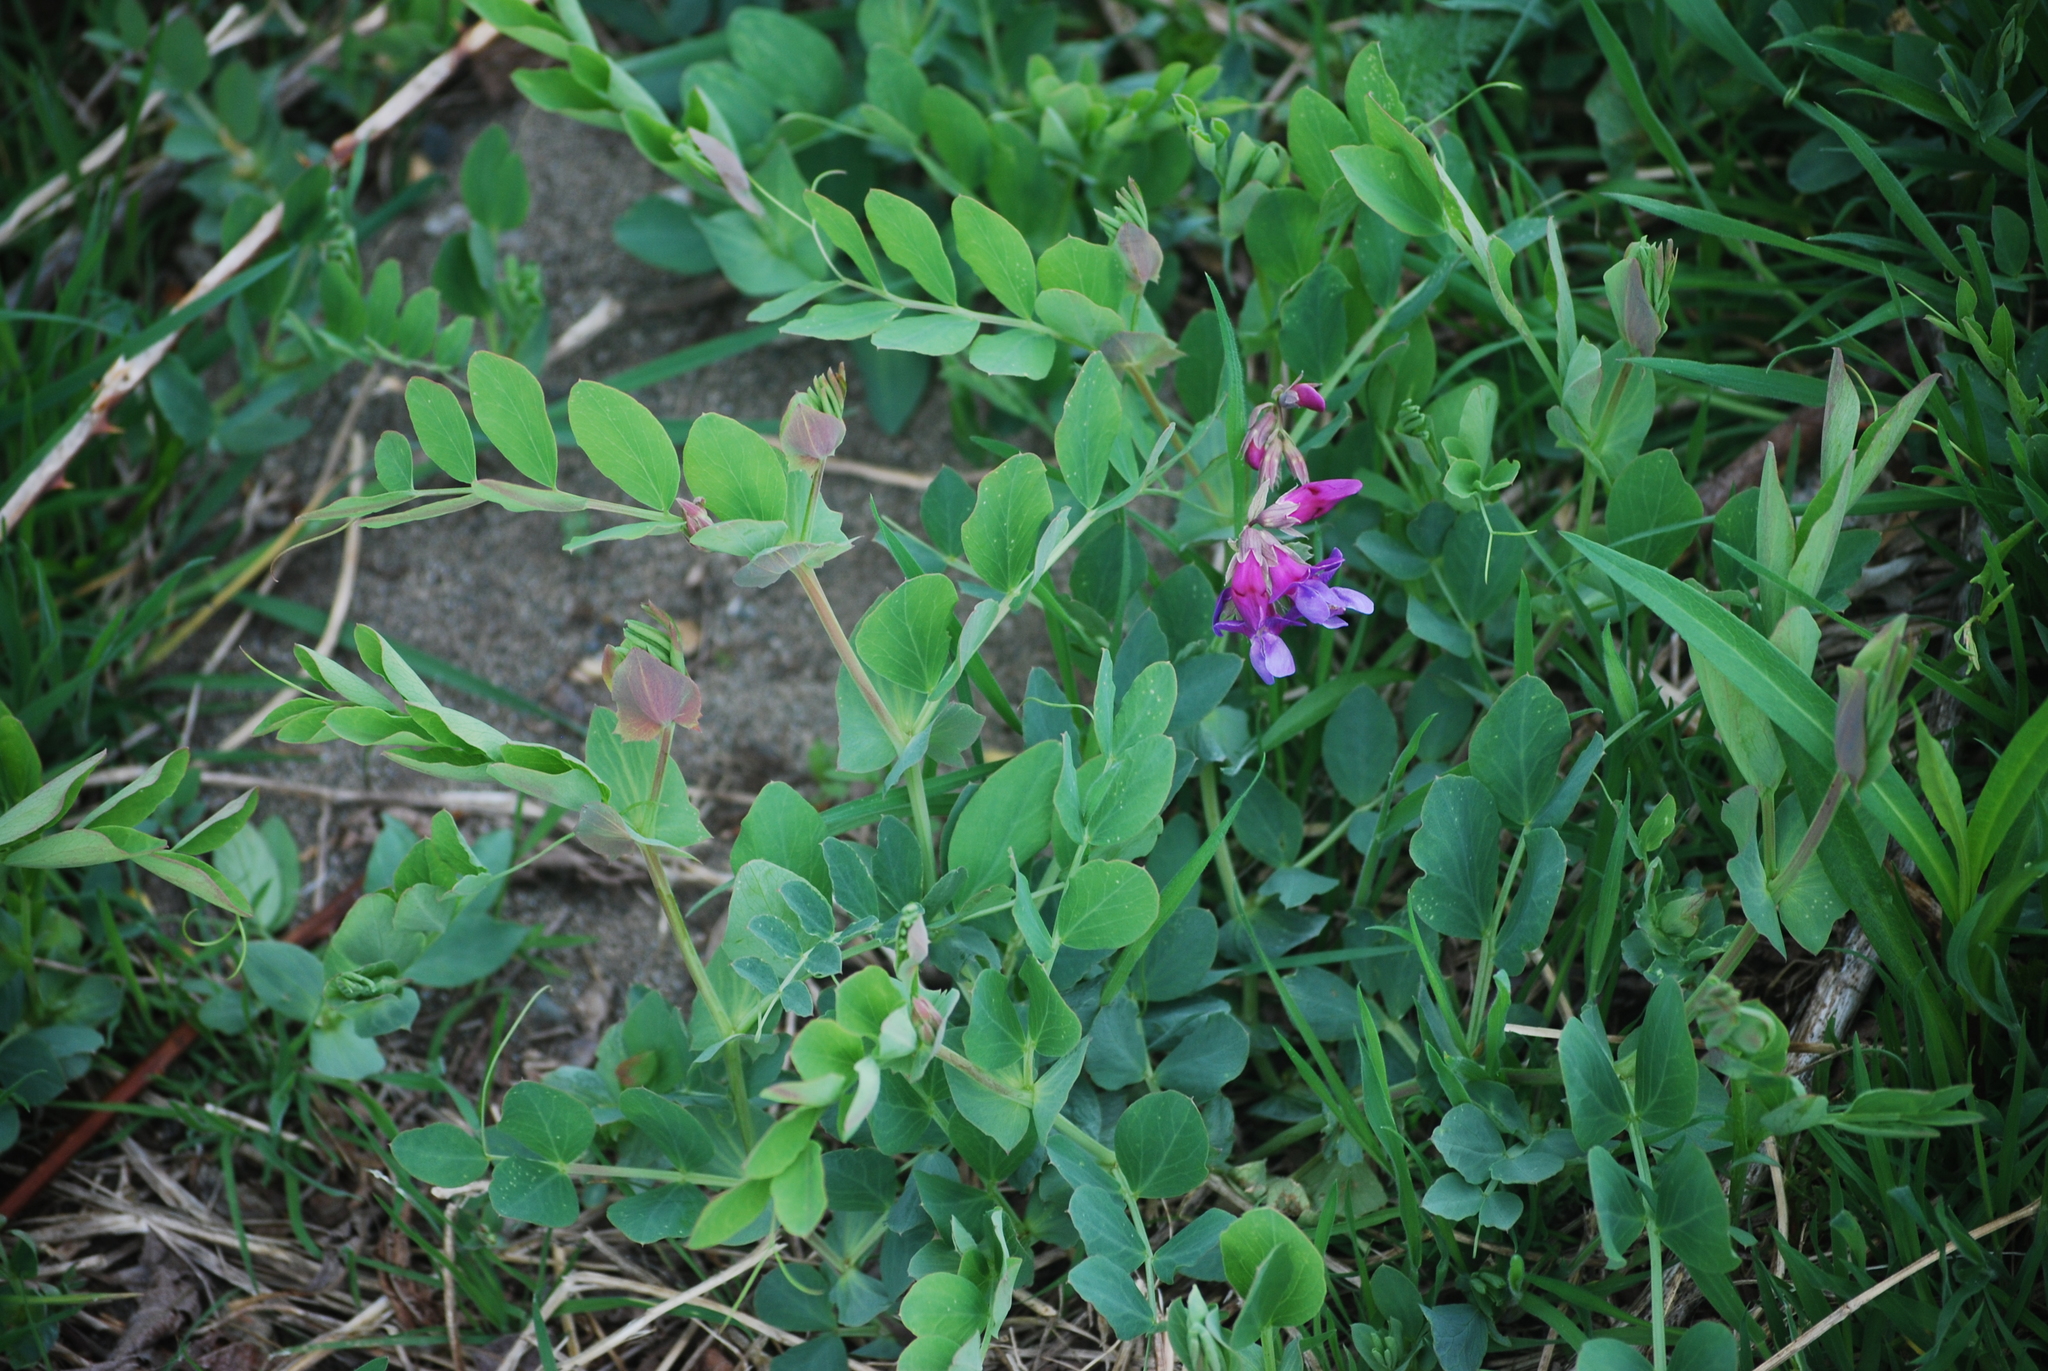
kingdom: Plantae
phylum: Tracheophyta
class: Magnoliopsida
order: Fabales
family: Fabaceae
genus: Lathyrus
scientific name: Lathyrus japonicus
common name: Sea pea
